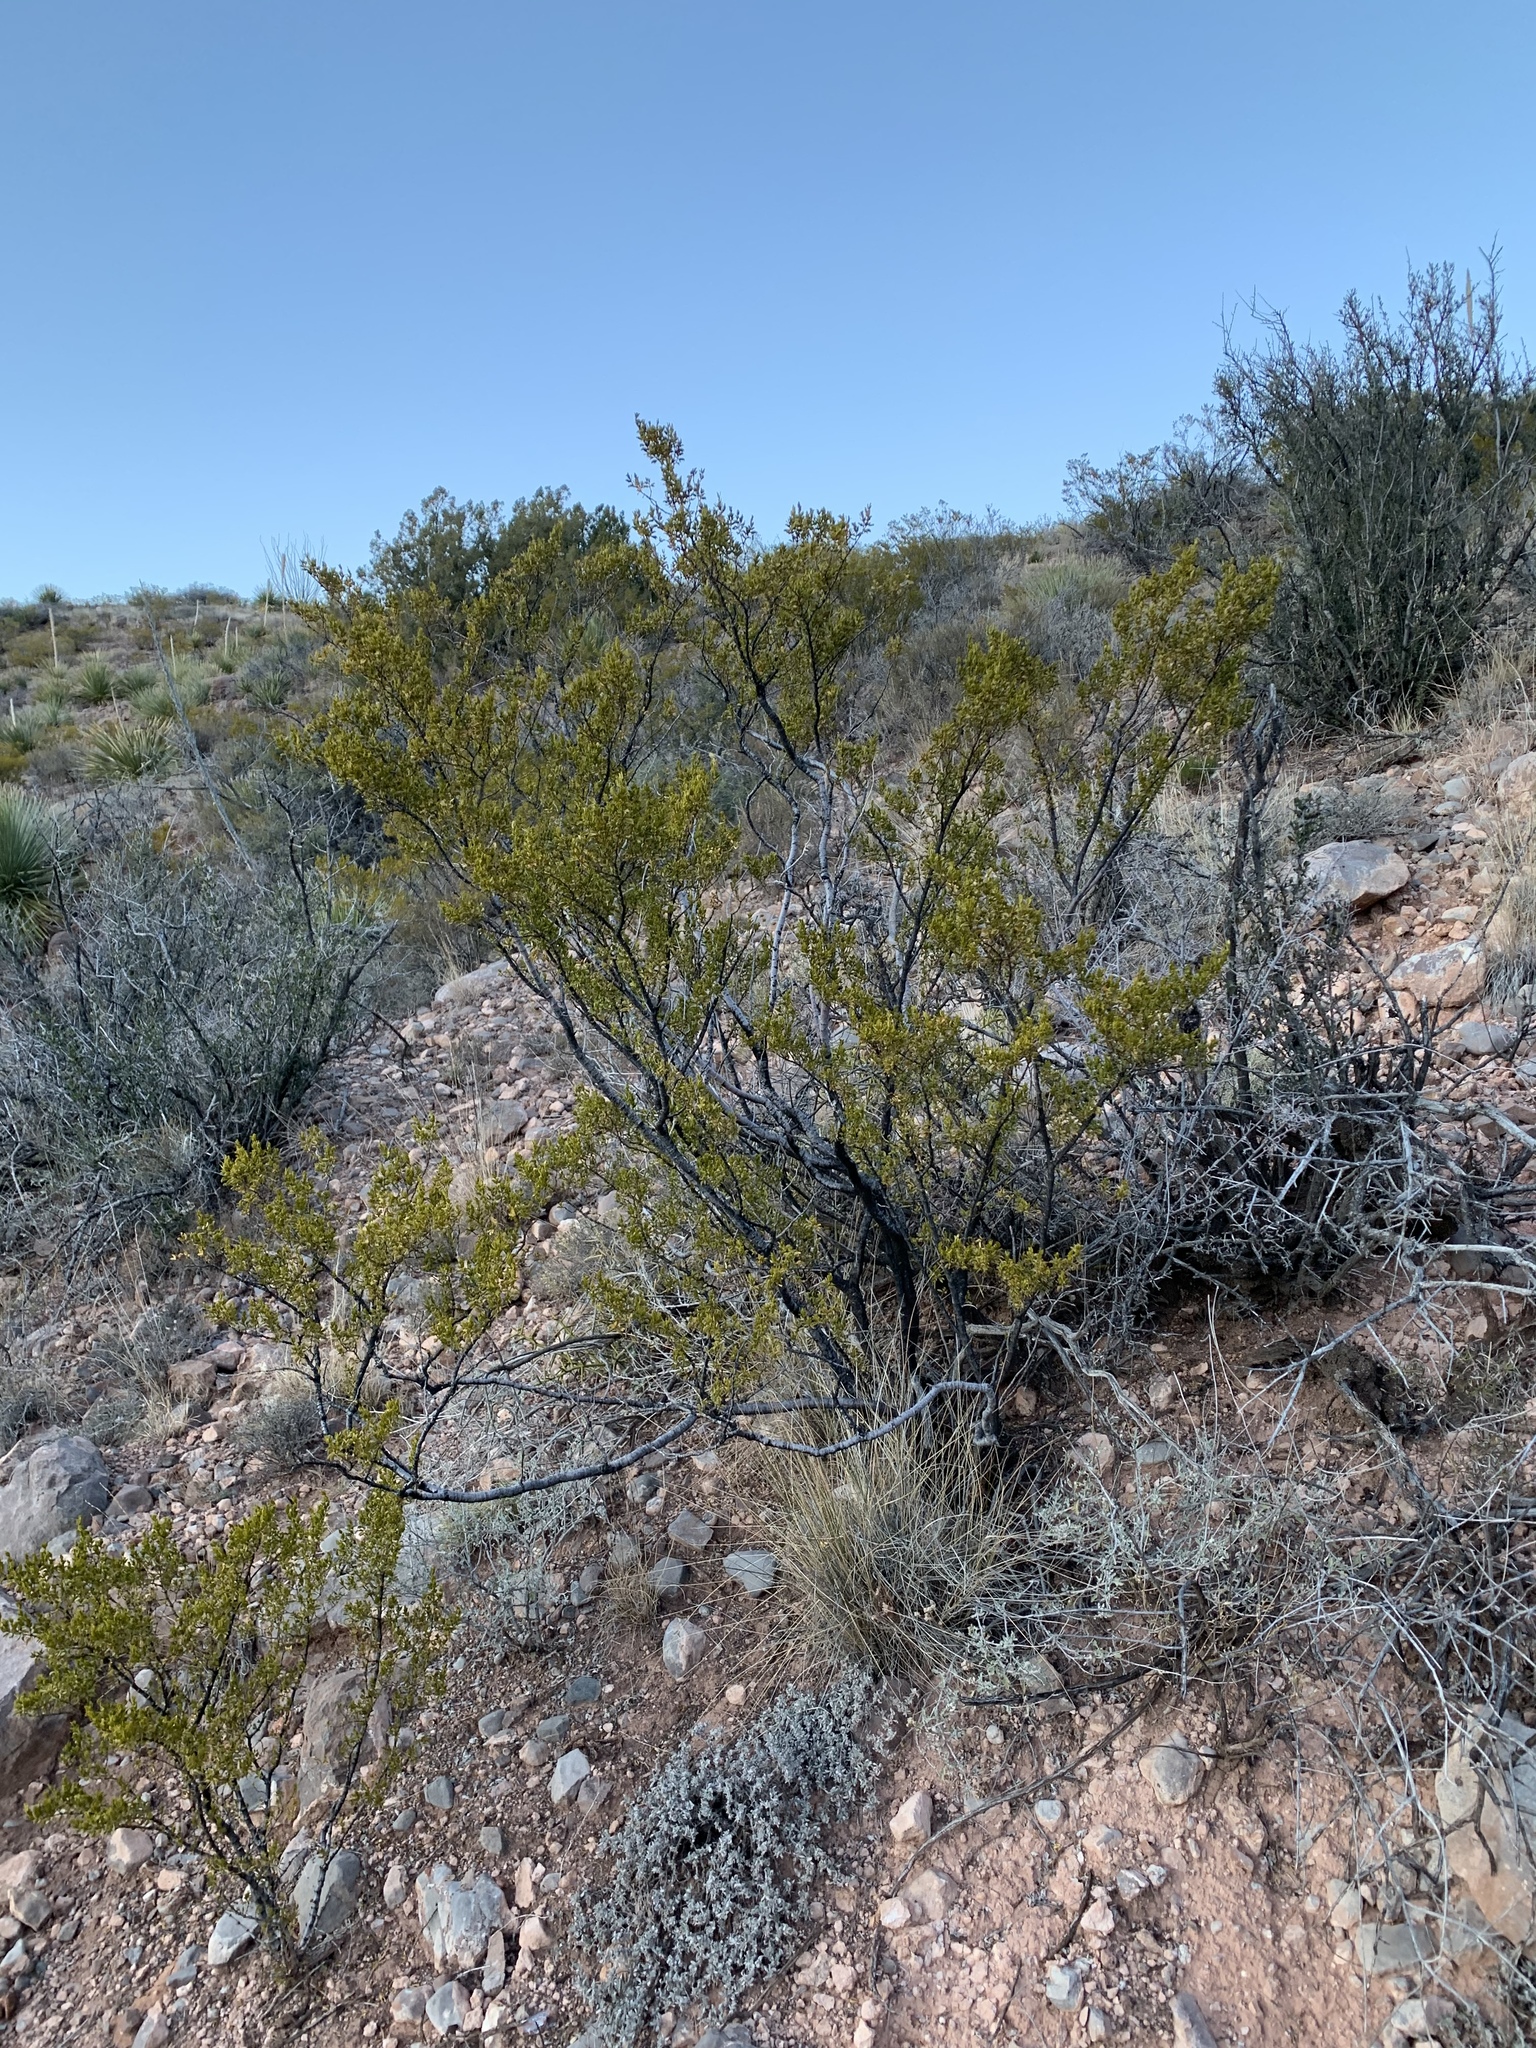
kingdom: Plantae
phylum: Tracheophyta
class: Magnoliopsida
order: Zygophyllales
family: Zygophyllaceae
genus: Larrea
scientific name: Larrea tridentata
